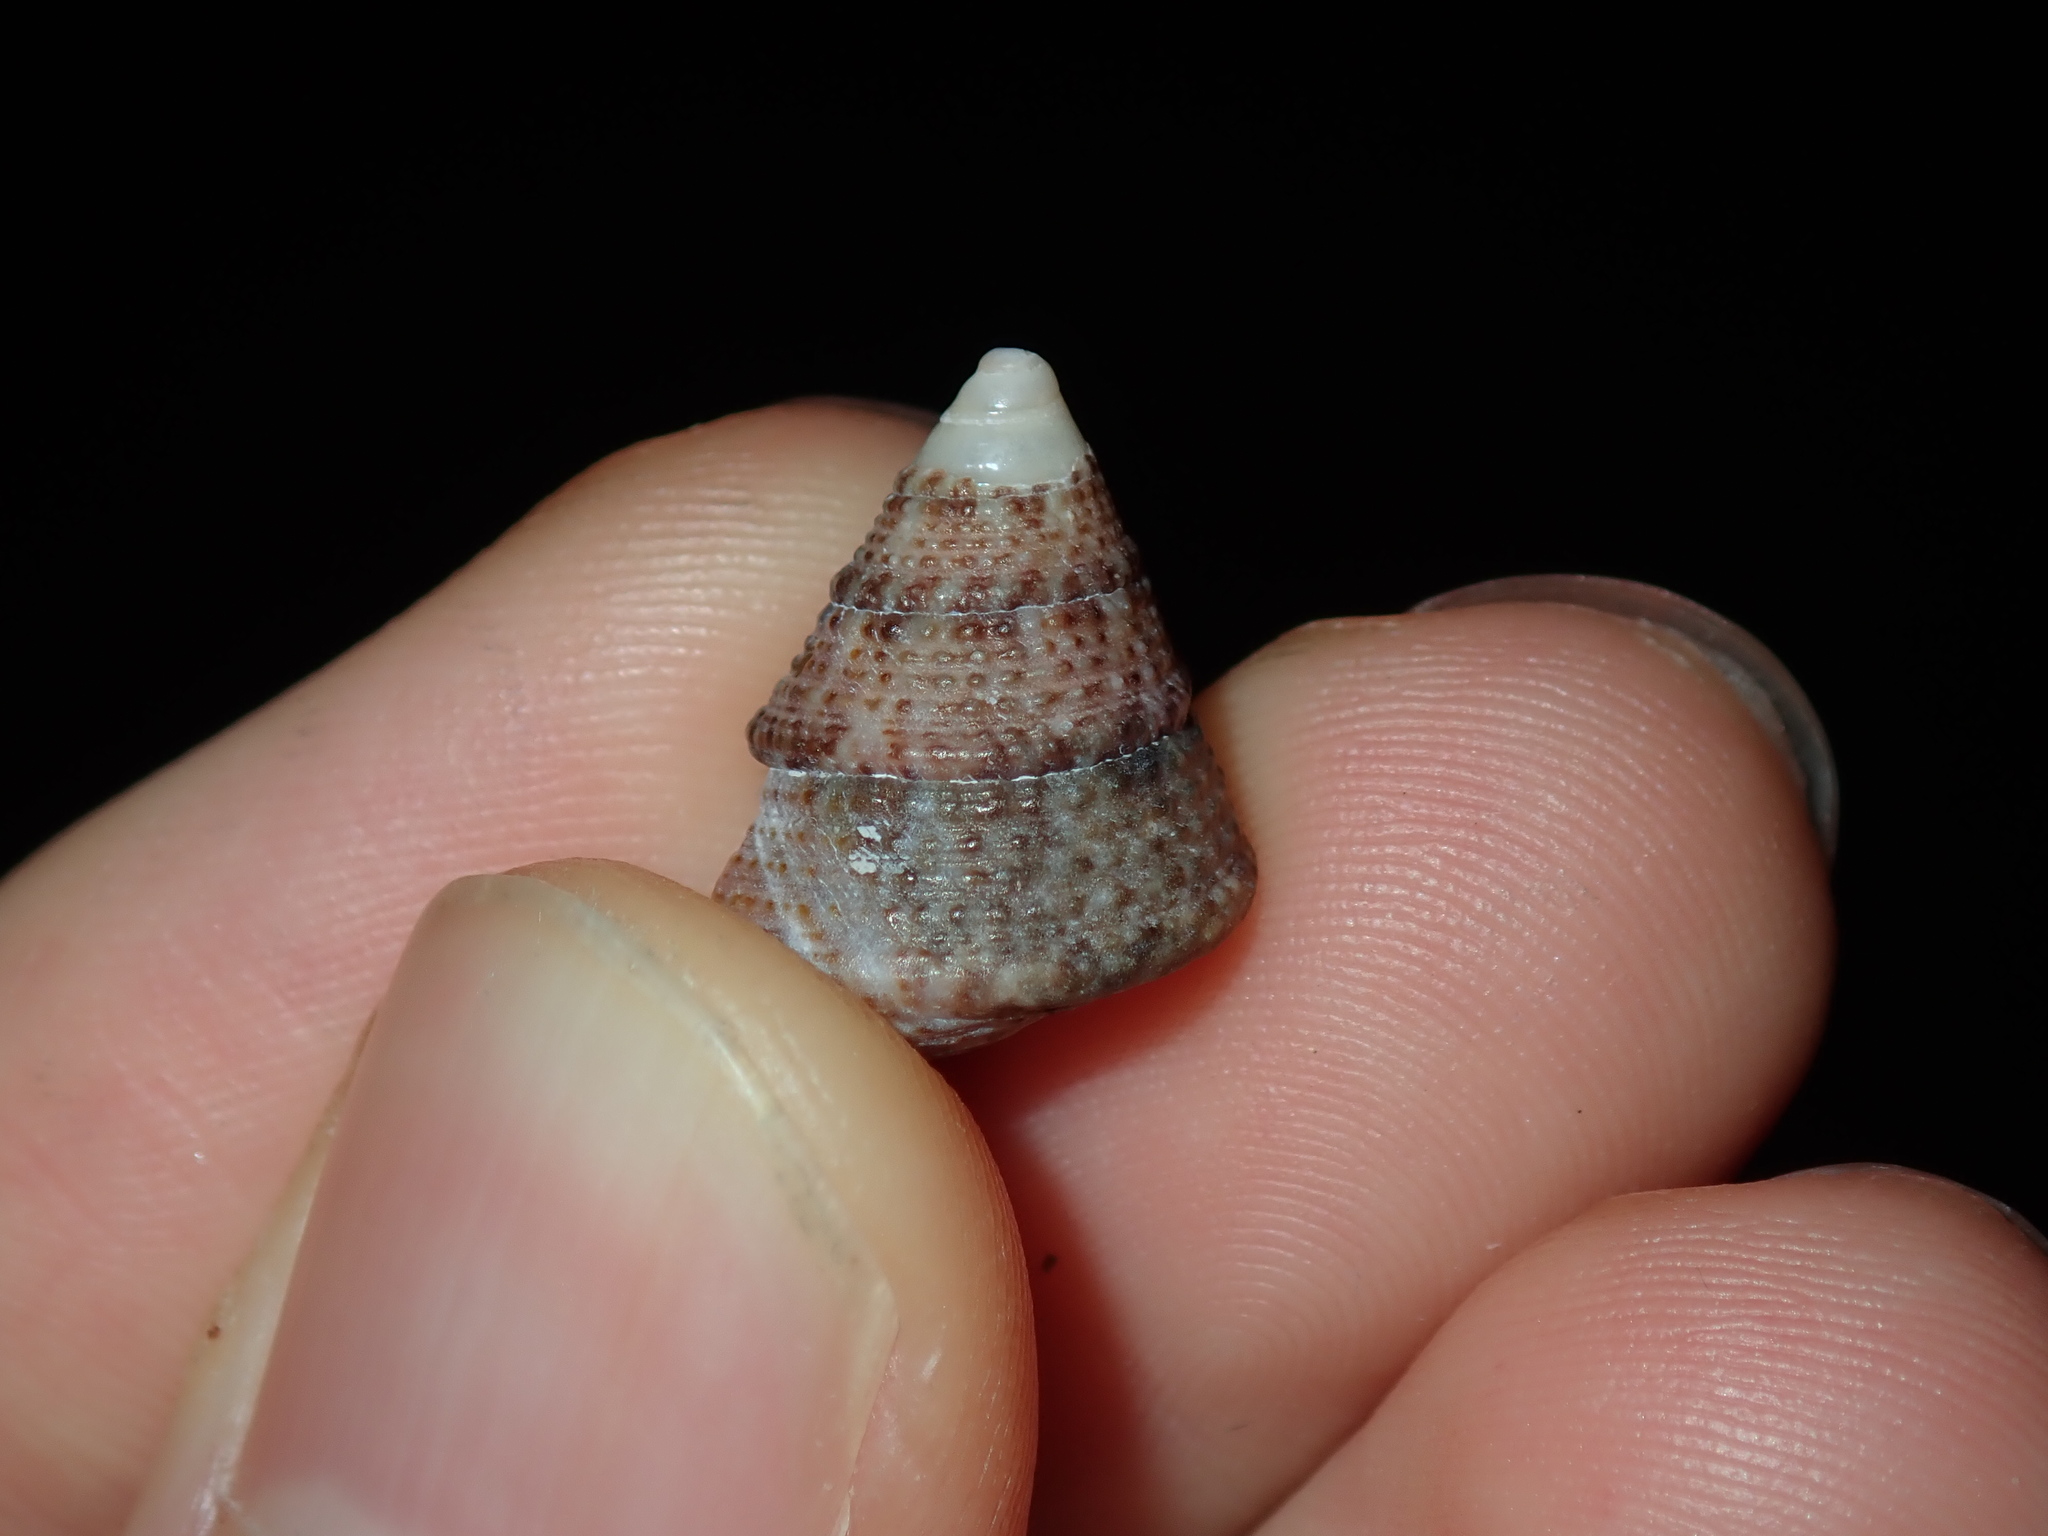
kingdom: Animalia
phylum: Mollusca
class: Gastropoda
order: Trochida
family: Trochidae
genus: Calthalotia
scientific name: Calthalotia fragum
